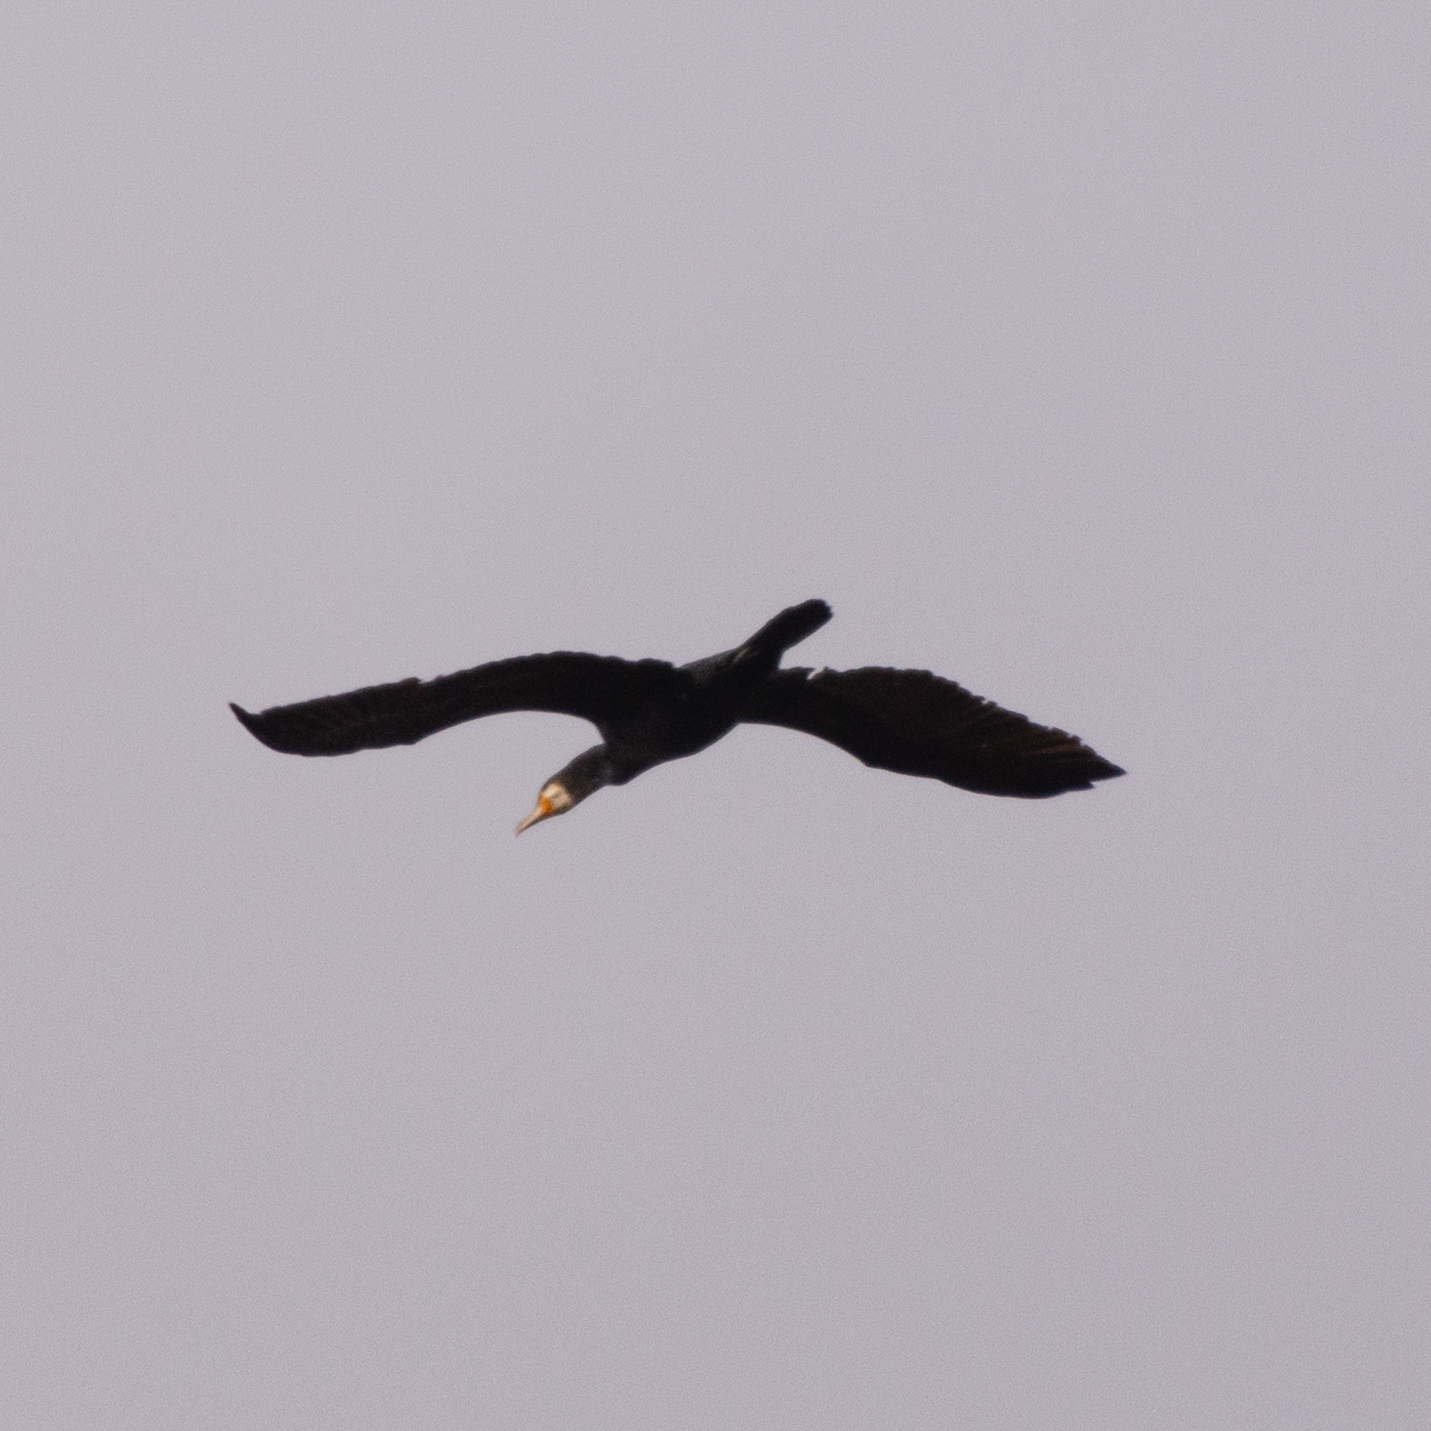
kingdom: Animalia
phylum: Chordata
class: Aves
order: Suliformes
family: Phalacrocoracidae
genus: Phalacrocorax
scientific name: Phalacrocorax carbo
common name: Great cormorant
